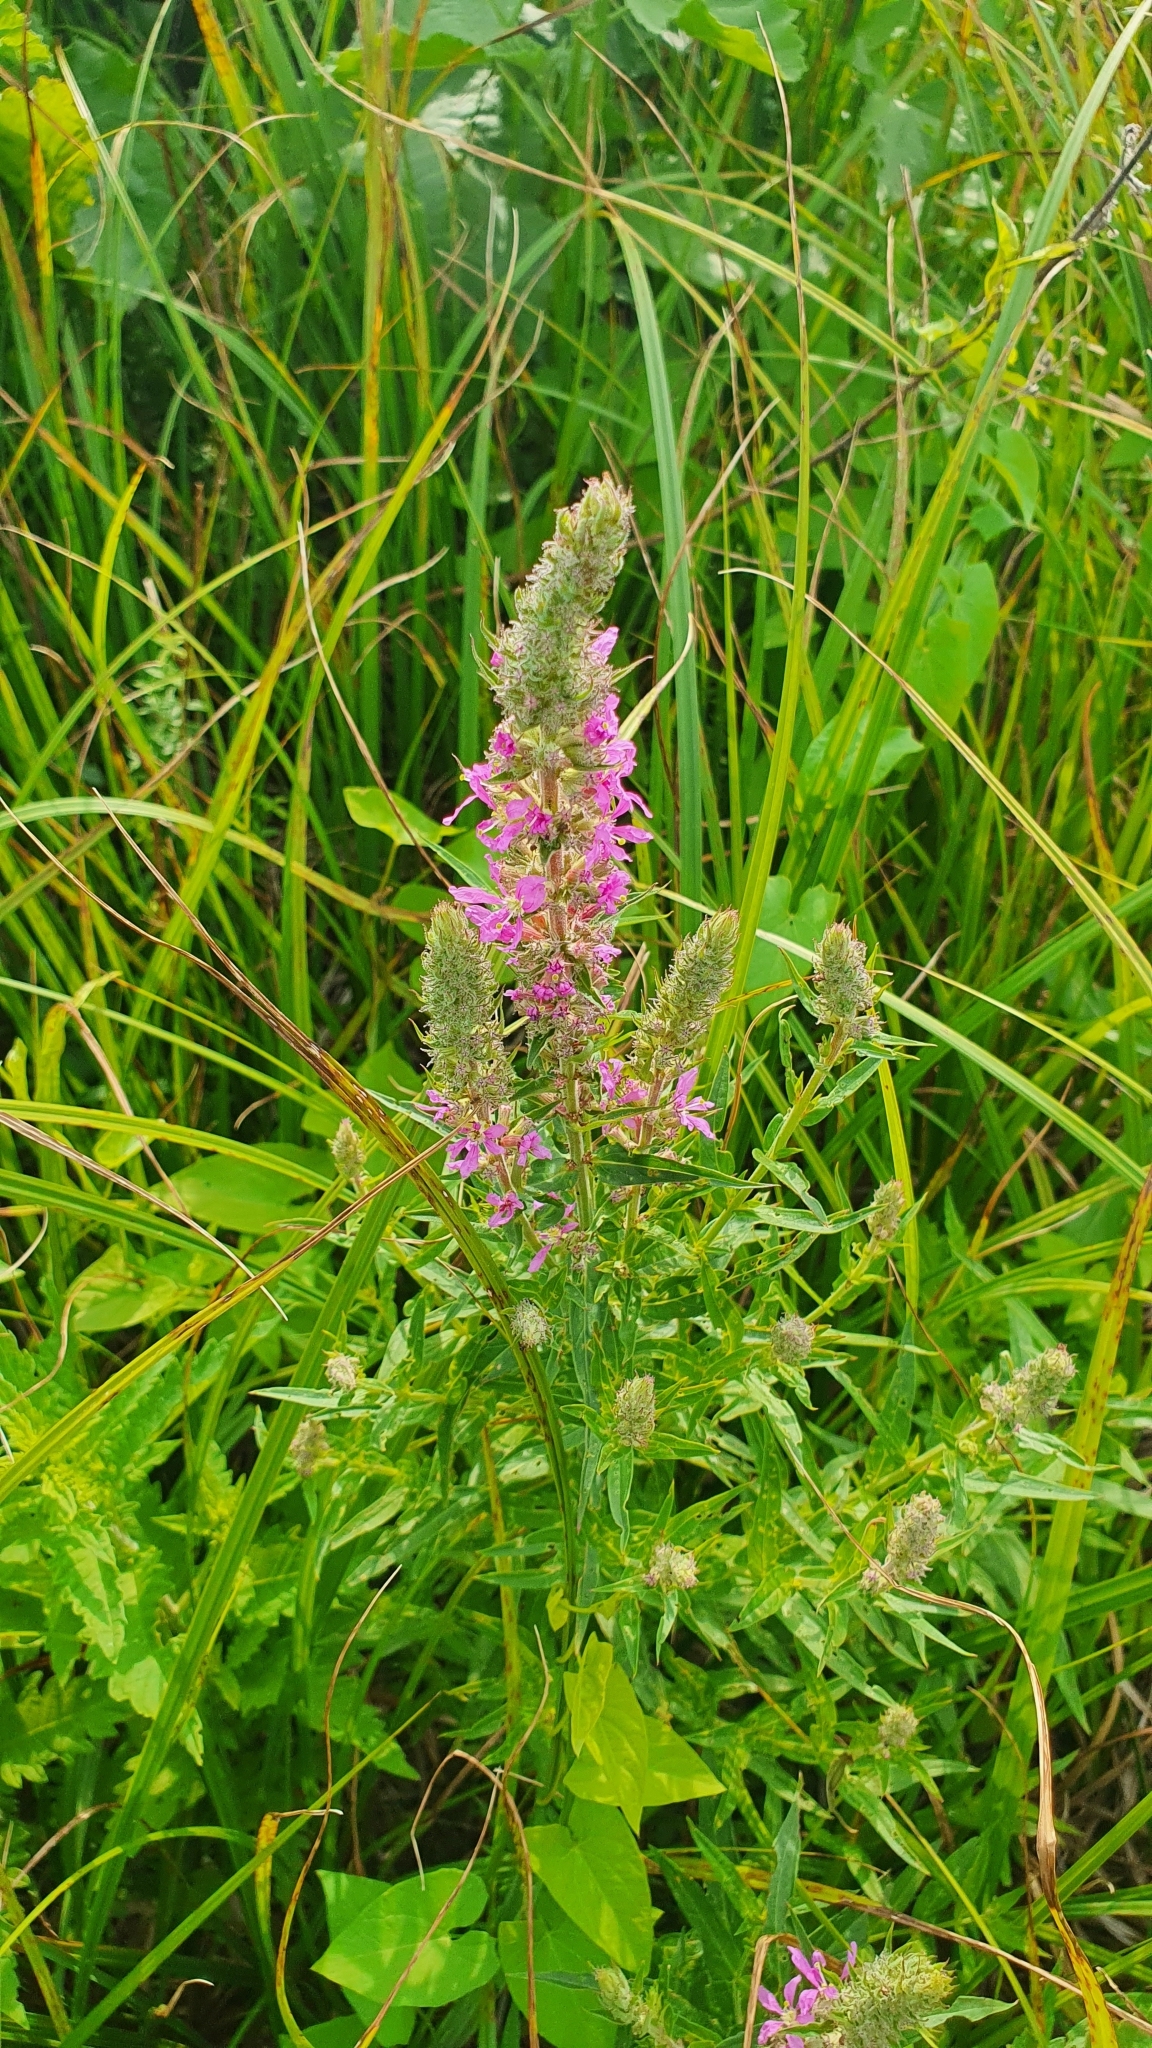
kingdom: Plantae
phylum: Tracheophyta
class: Magnoliopsida
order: Myrtales
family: Lythraceae
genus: Lythrum
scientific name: Lythrum intermedium
